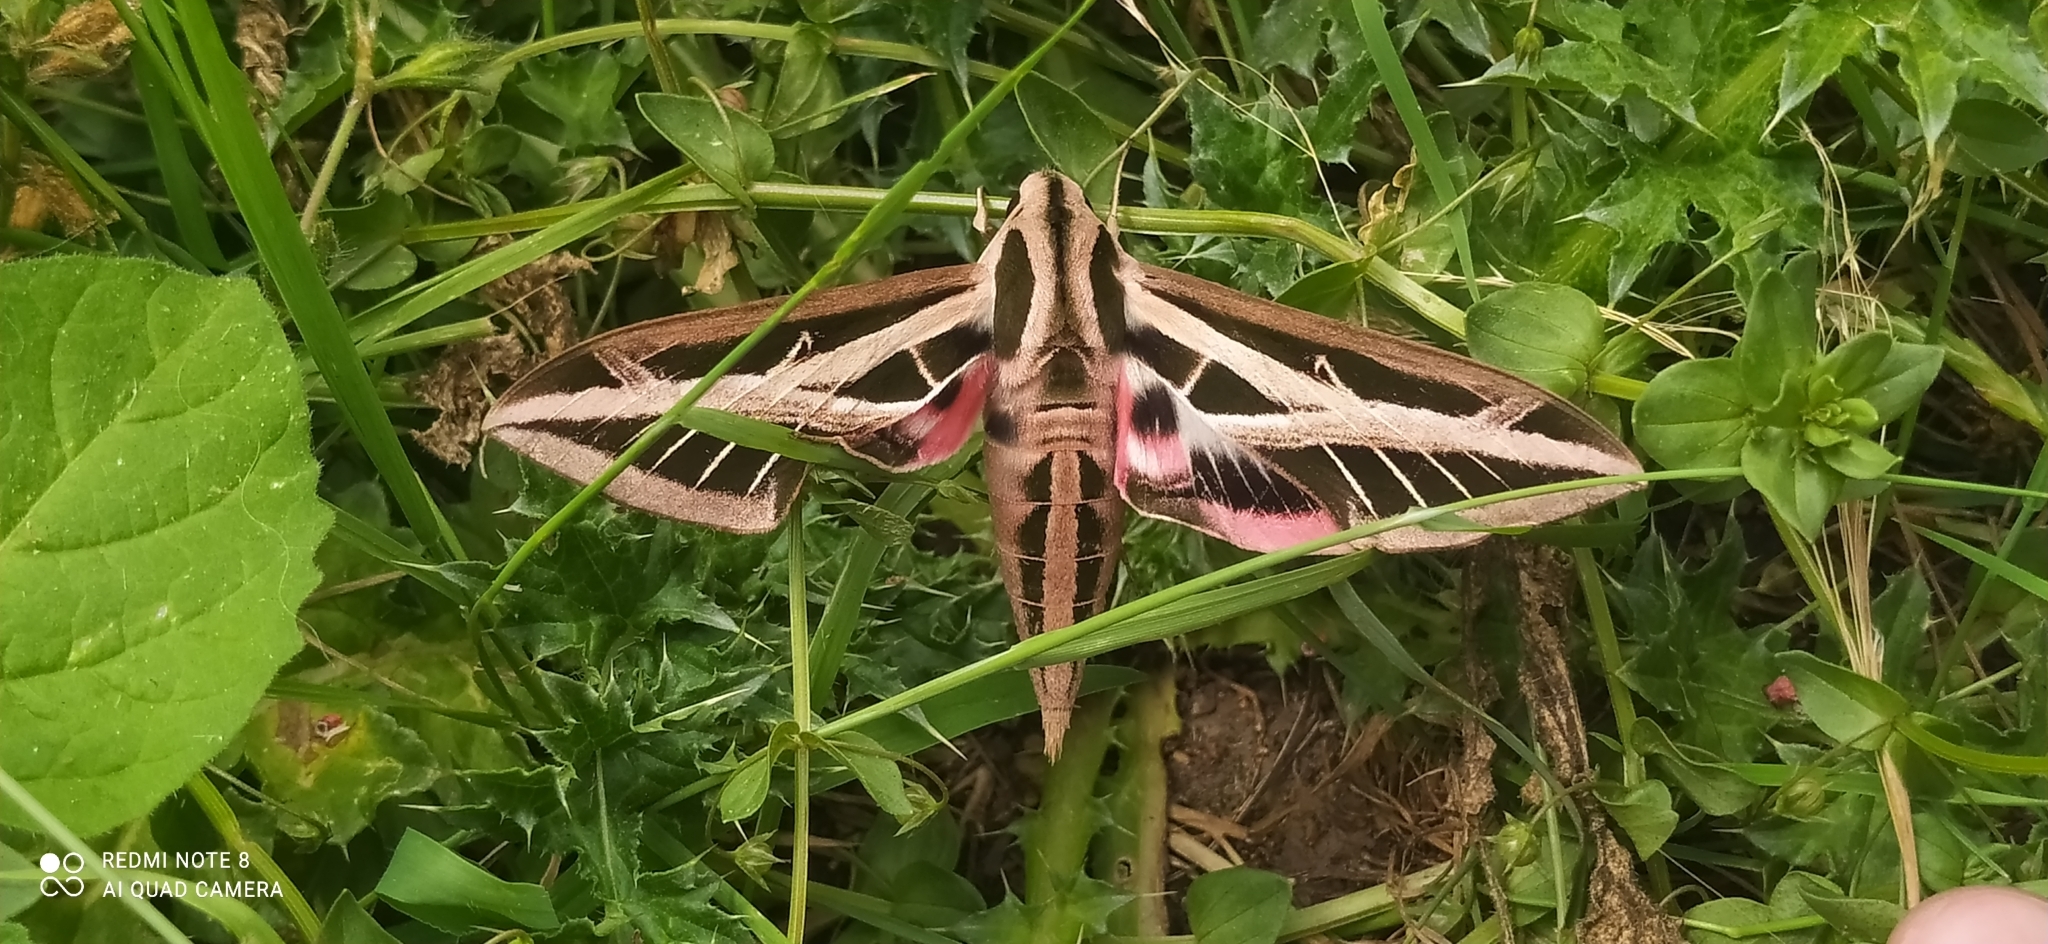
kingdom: Animalia
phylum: Arthropoda
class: Insecta
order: Lepidoptera
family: Sphingidae
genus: Eumorpha
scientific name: Eumorpha fasciatus
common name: Banded sphinx
